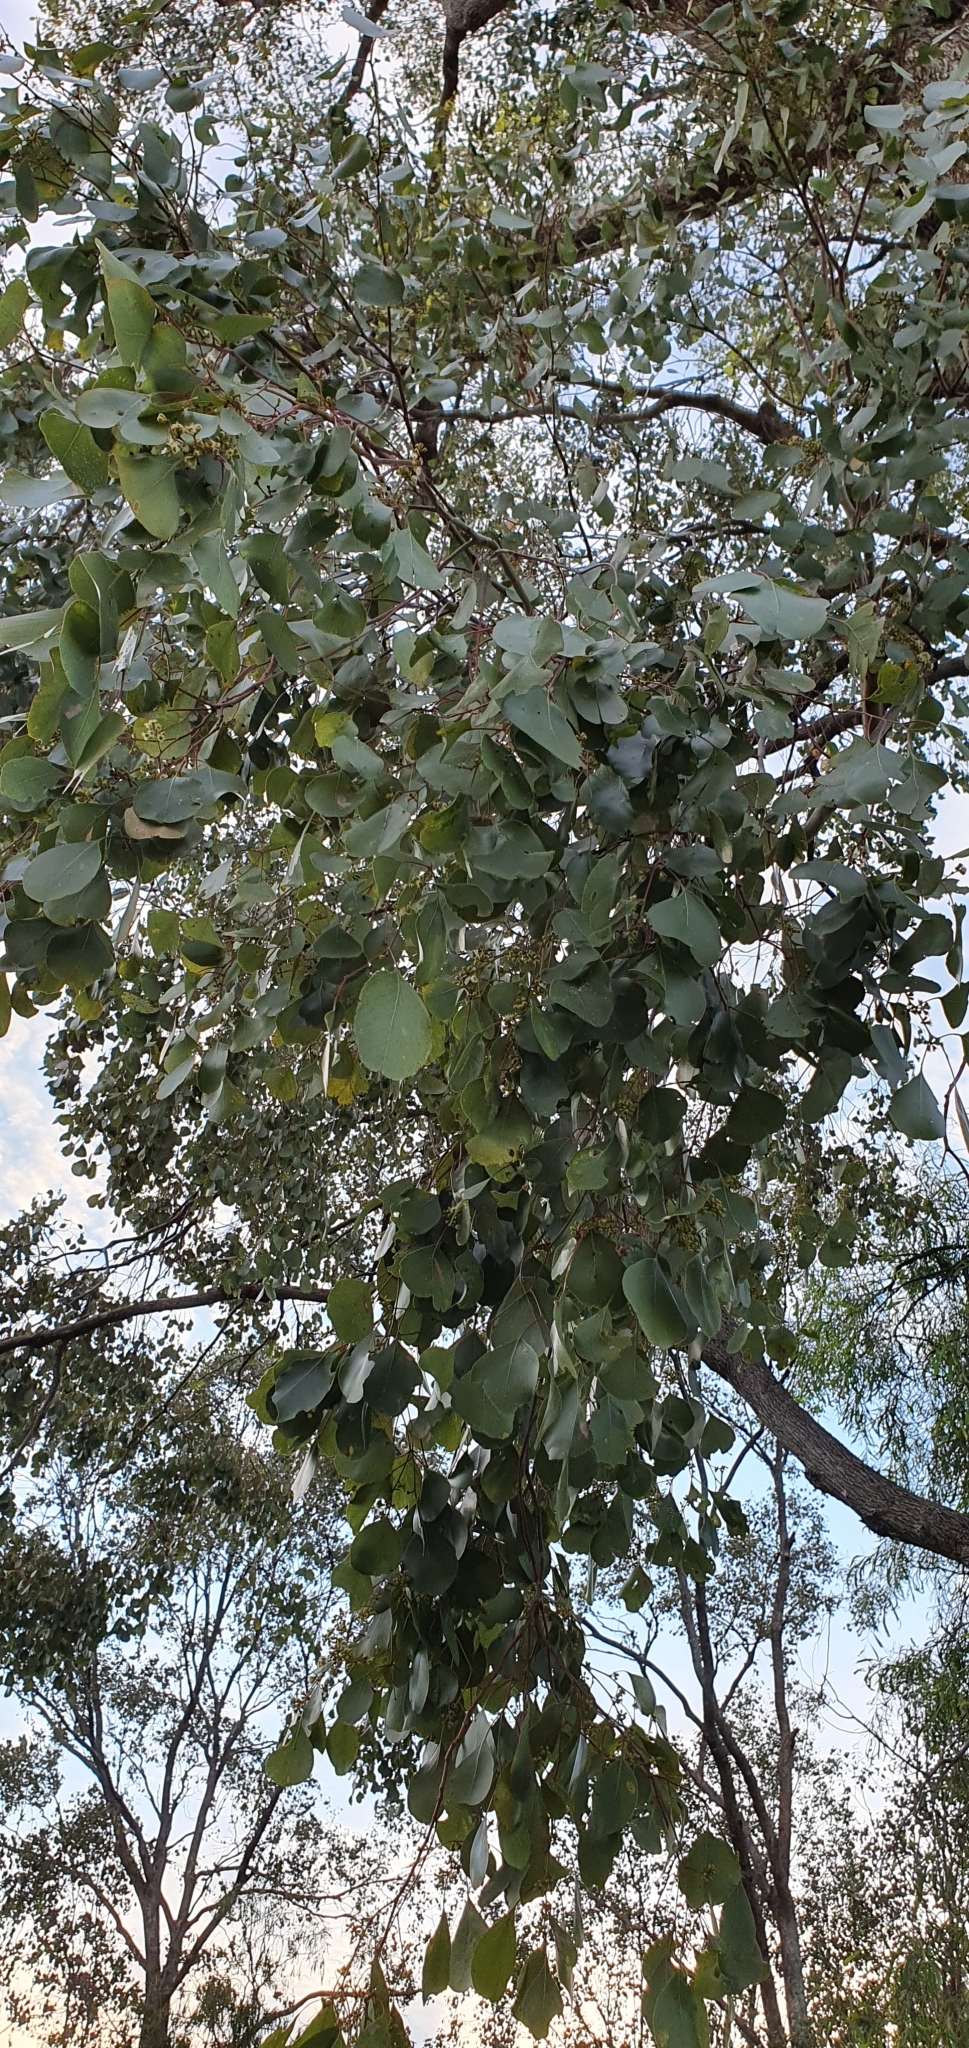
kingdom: Plantae
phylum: Tracheophyta
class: Magnoliopsida
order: Myrtales
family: Myrtaceae
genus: Eucalyptus
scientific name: Eucalyptus populnea
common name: Bimble box
